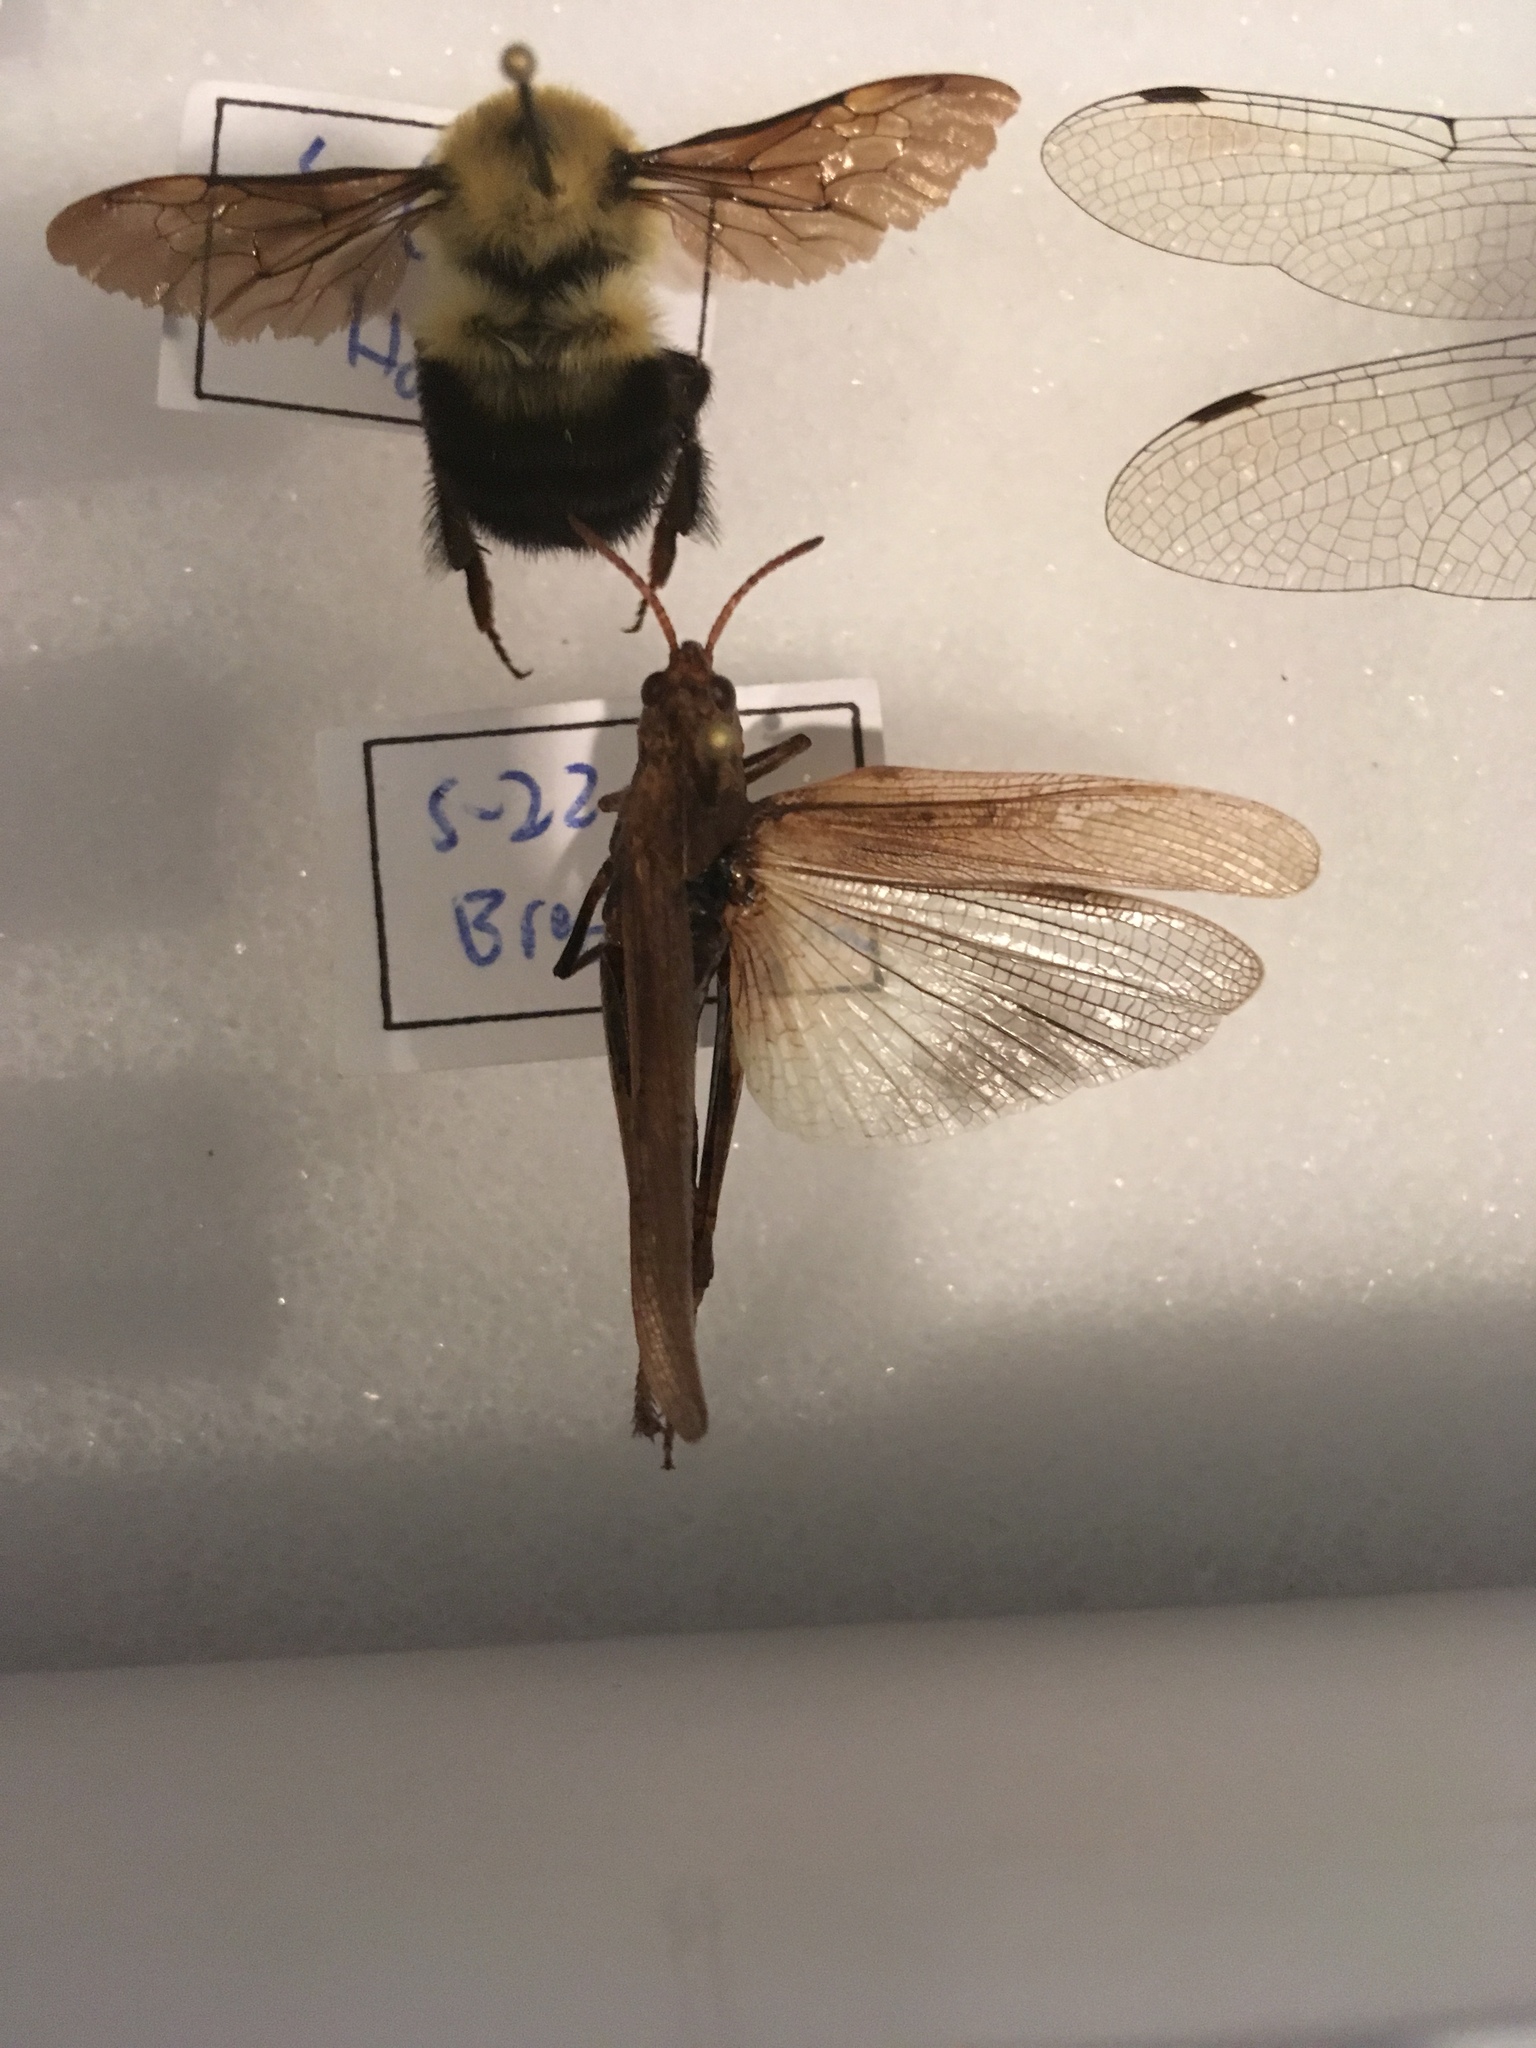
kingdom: Animalia
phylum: Arthropoda
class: Insecta
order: Orthoptera
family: Acrididae
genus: Chortophaga
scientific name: Chortophaga viridifasciata
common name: Green-striped grasshopper
